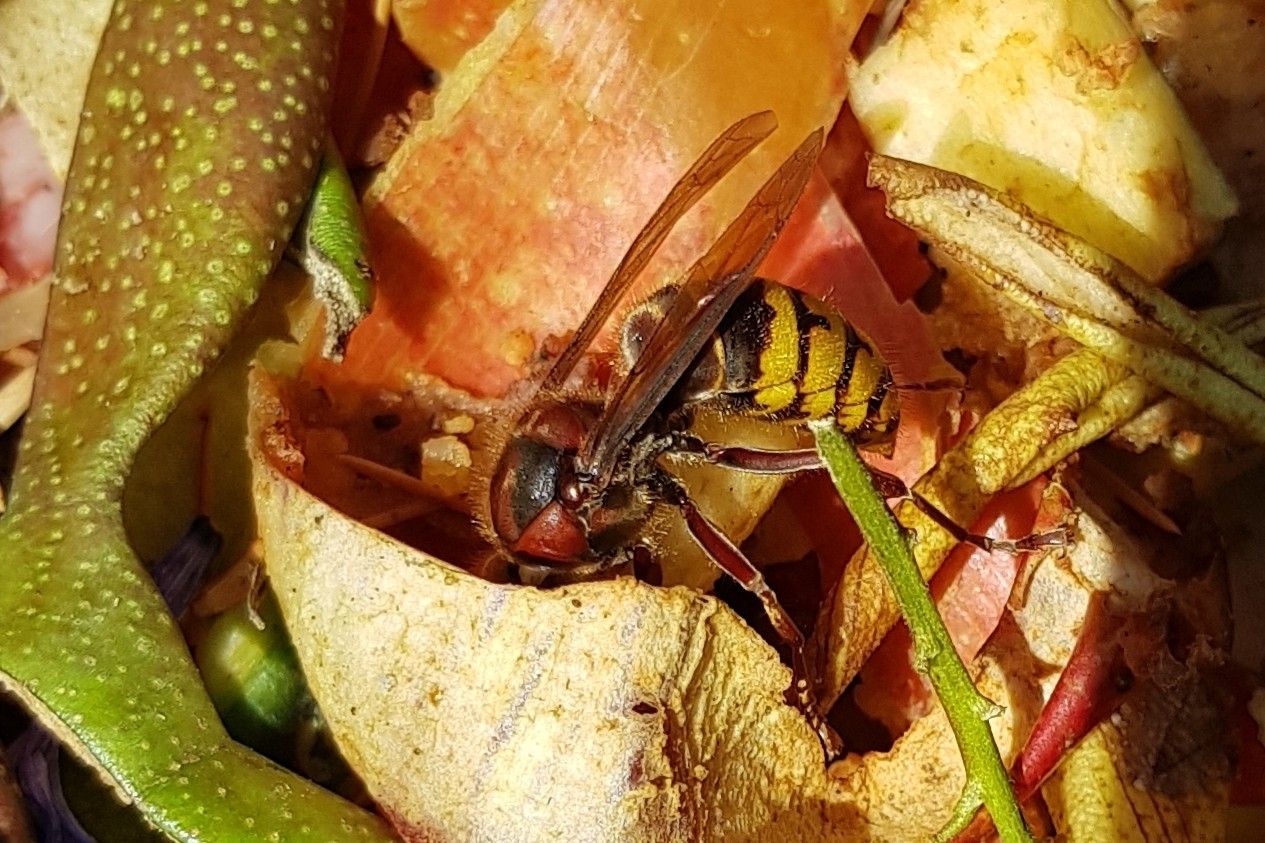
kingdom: Animalia
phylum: Arthropoda
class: Insecta
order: Hymenoptera
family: Vespidae
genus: Vespa
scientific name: Vespa crabro
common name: Hornet
